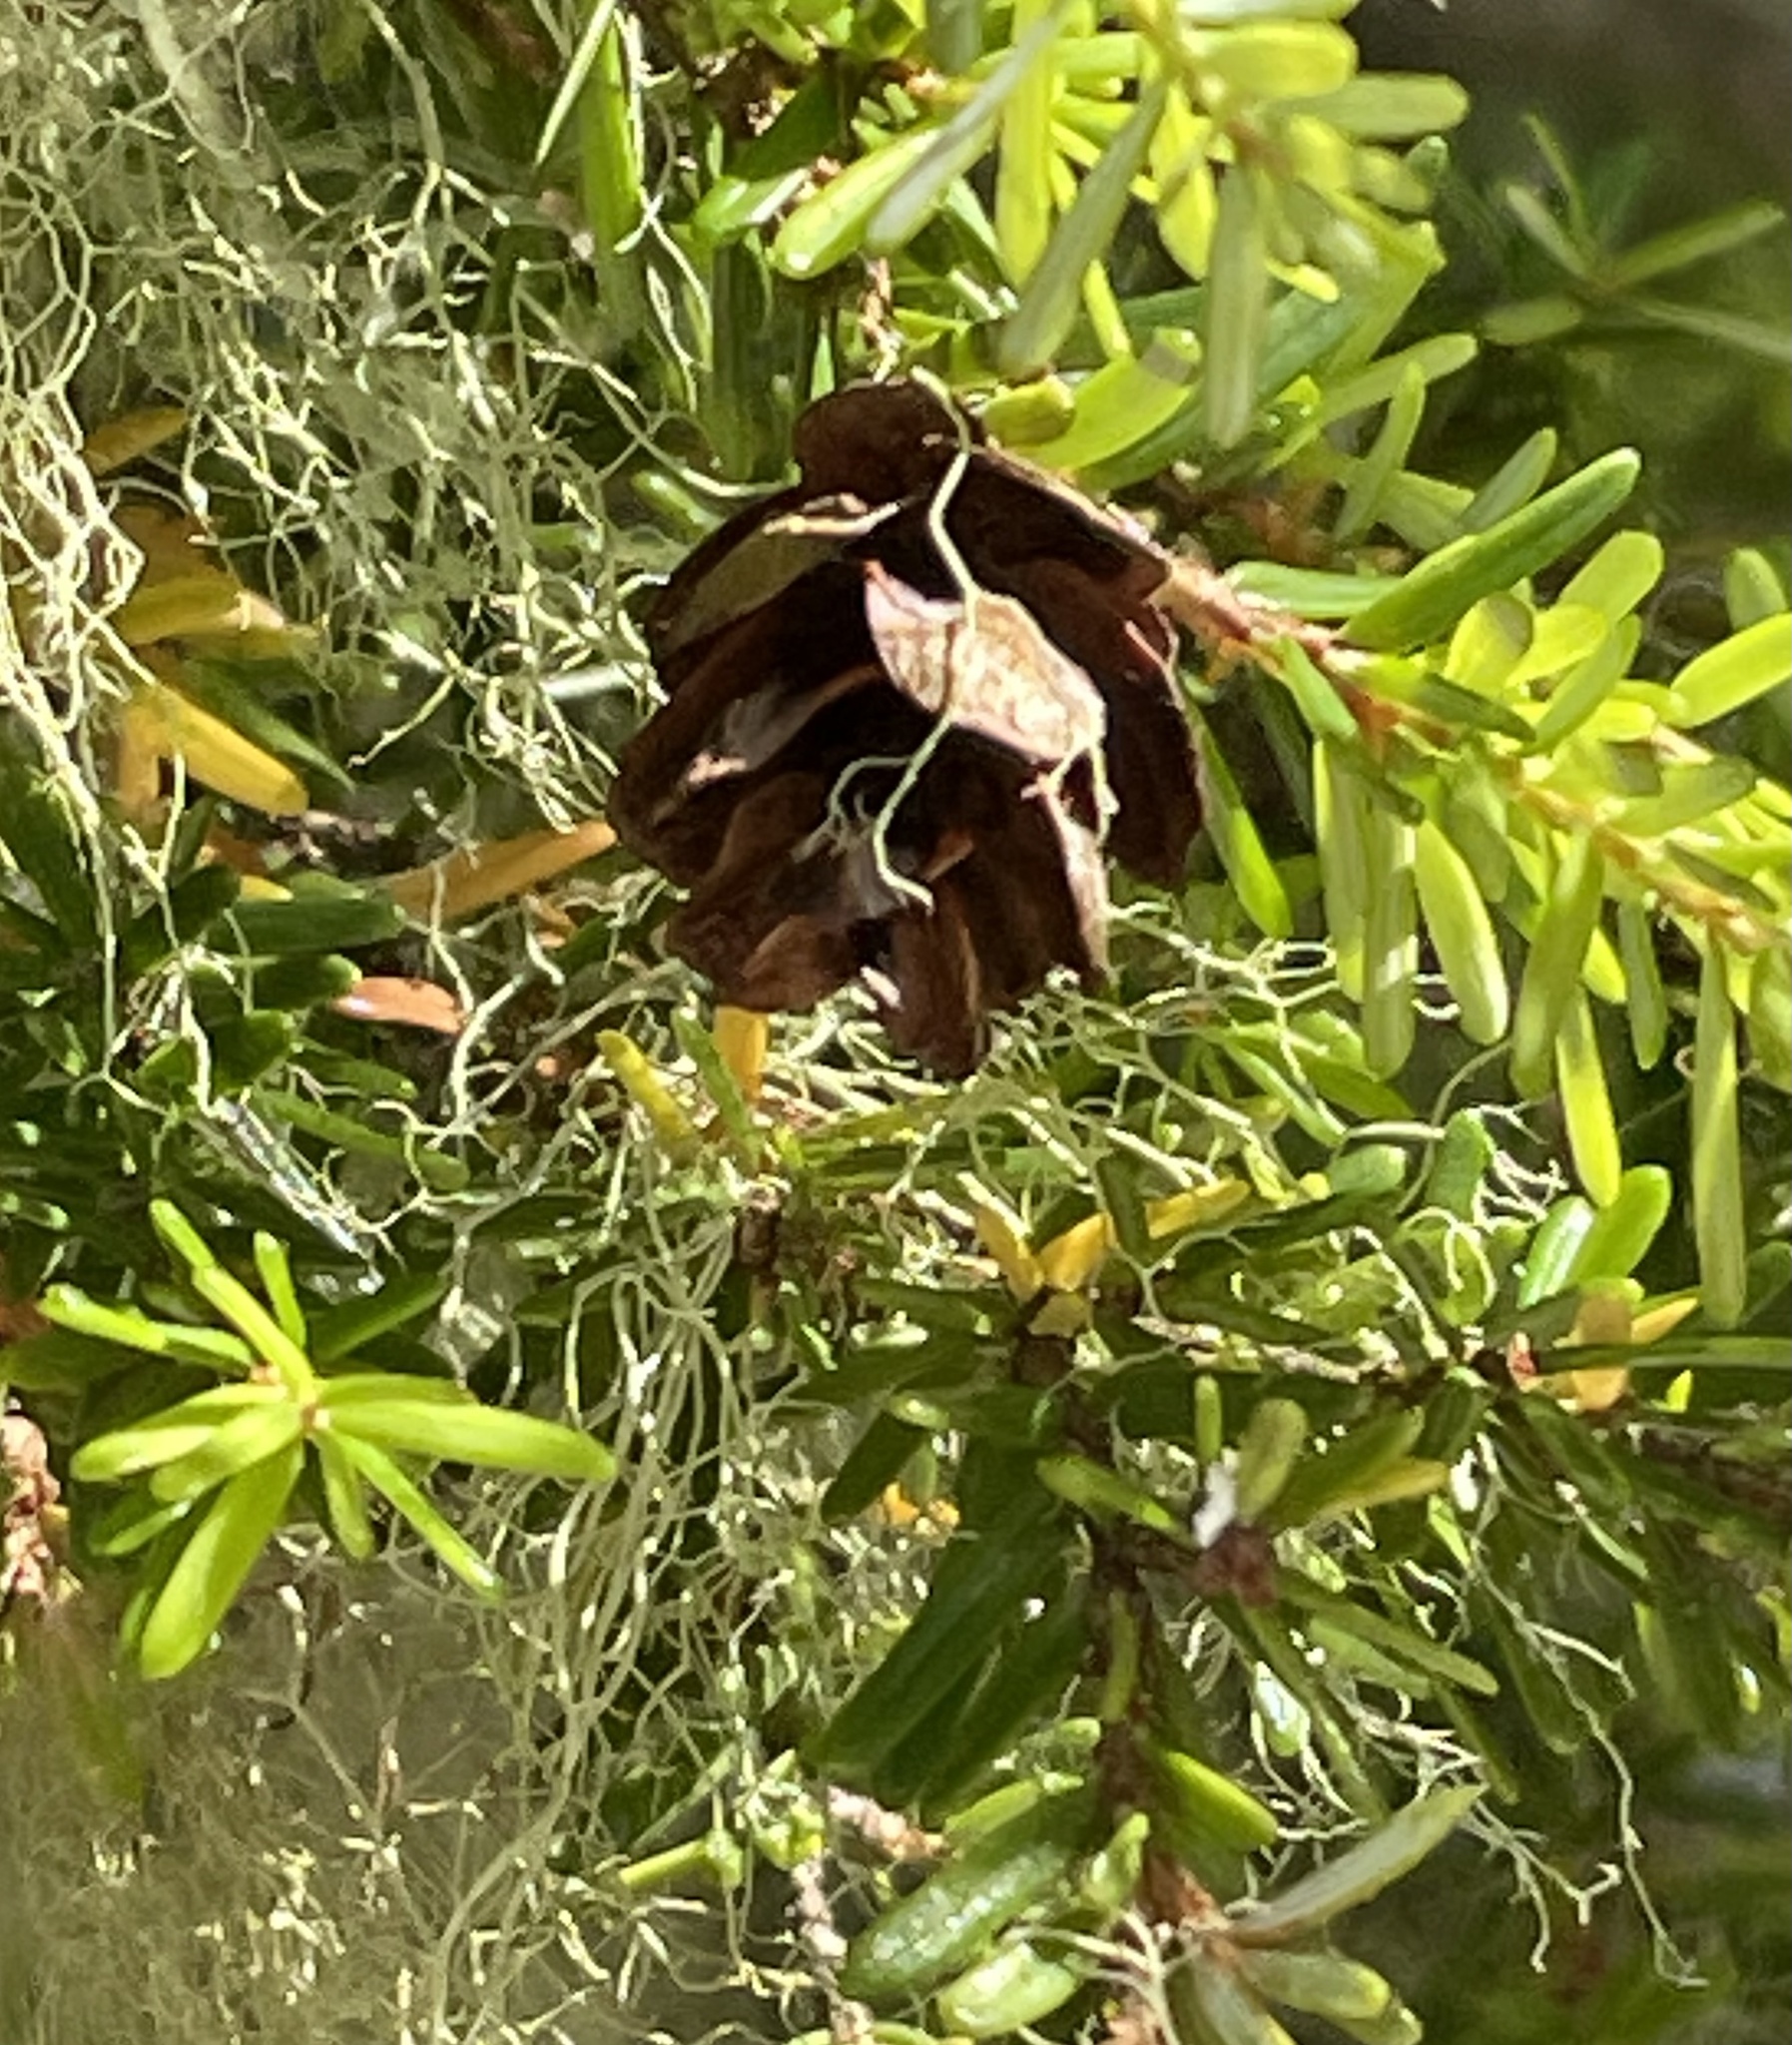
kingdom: Plantae
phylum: Tracheophyta
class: Pinopsida
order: Pinales
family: Pinaceae
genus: Tsuga
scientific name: Tsuga heterophylla
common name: Western hemlock
